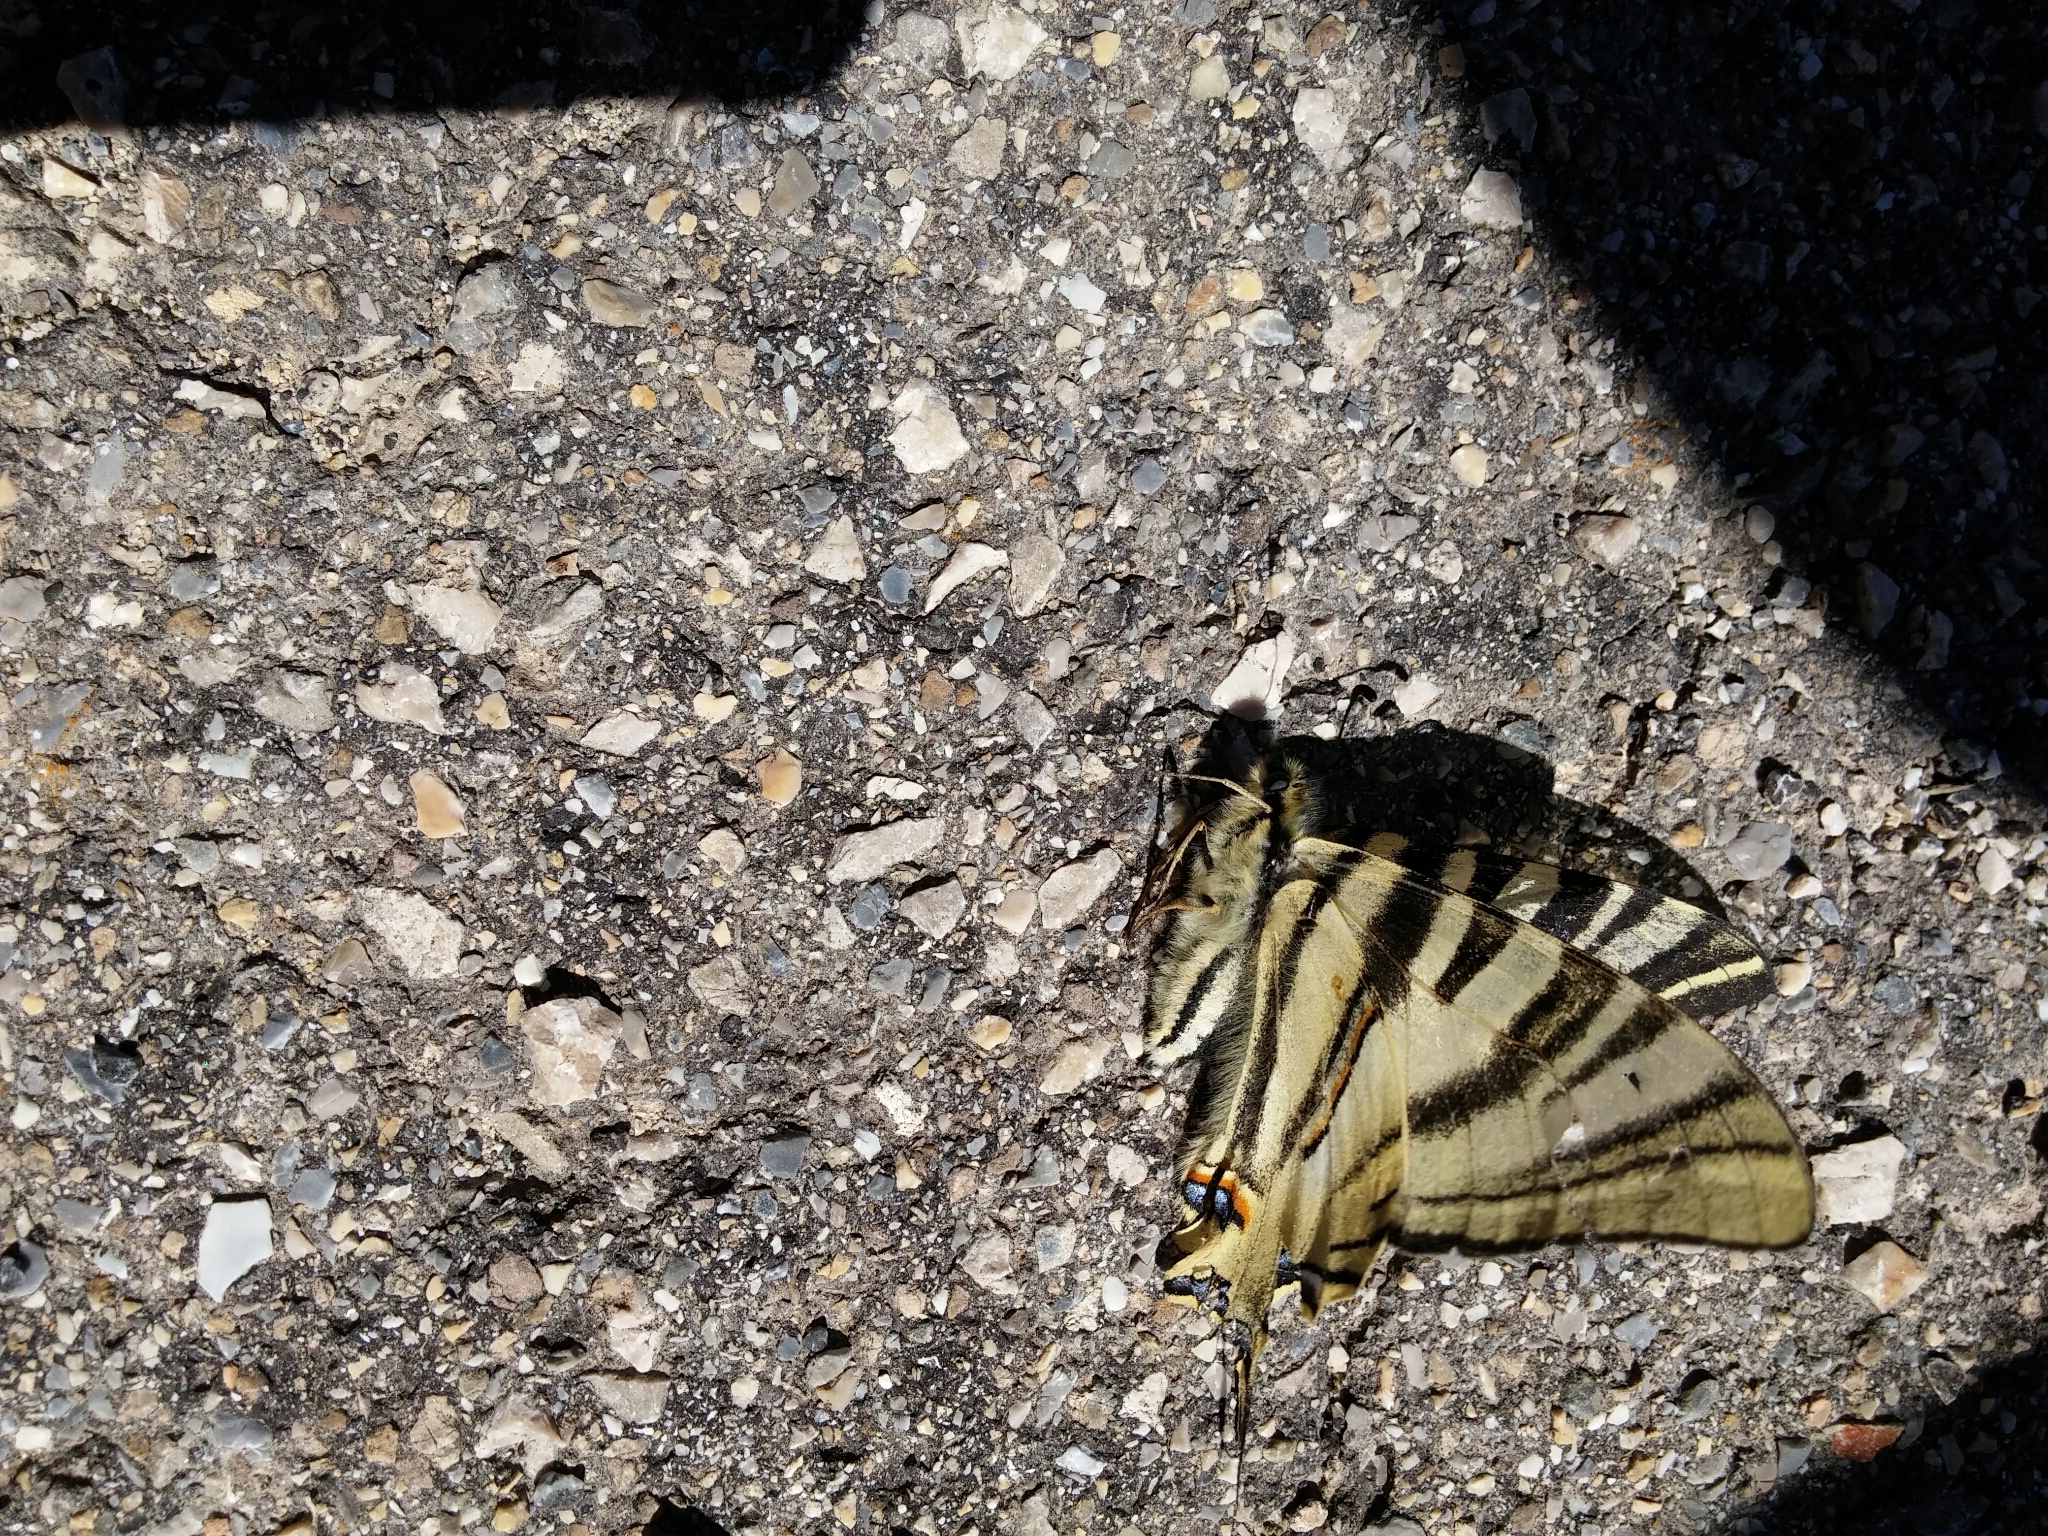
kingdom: Animalia
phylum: Arthropoda
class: Insecta
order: Lepidoptera
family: Papilionidae
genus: Iphiclides
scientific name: Iphiclides feisthamelii
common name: Iberian scarce swallowtail
